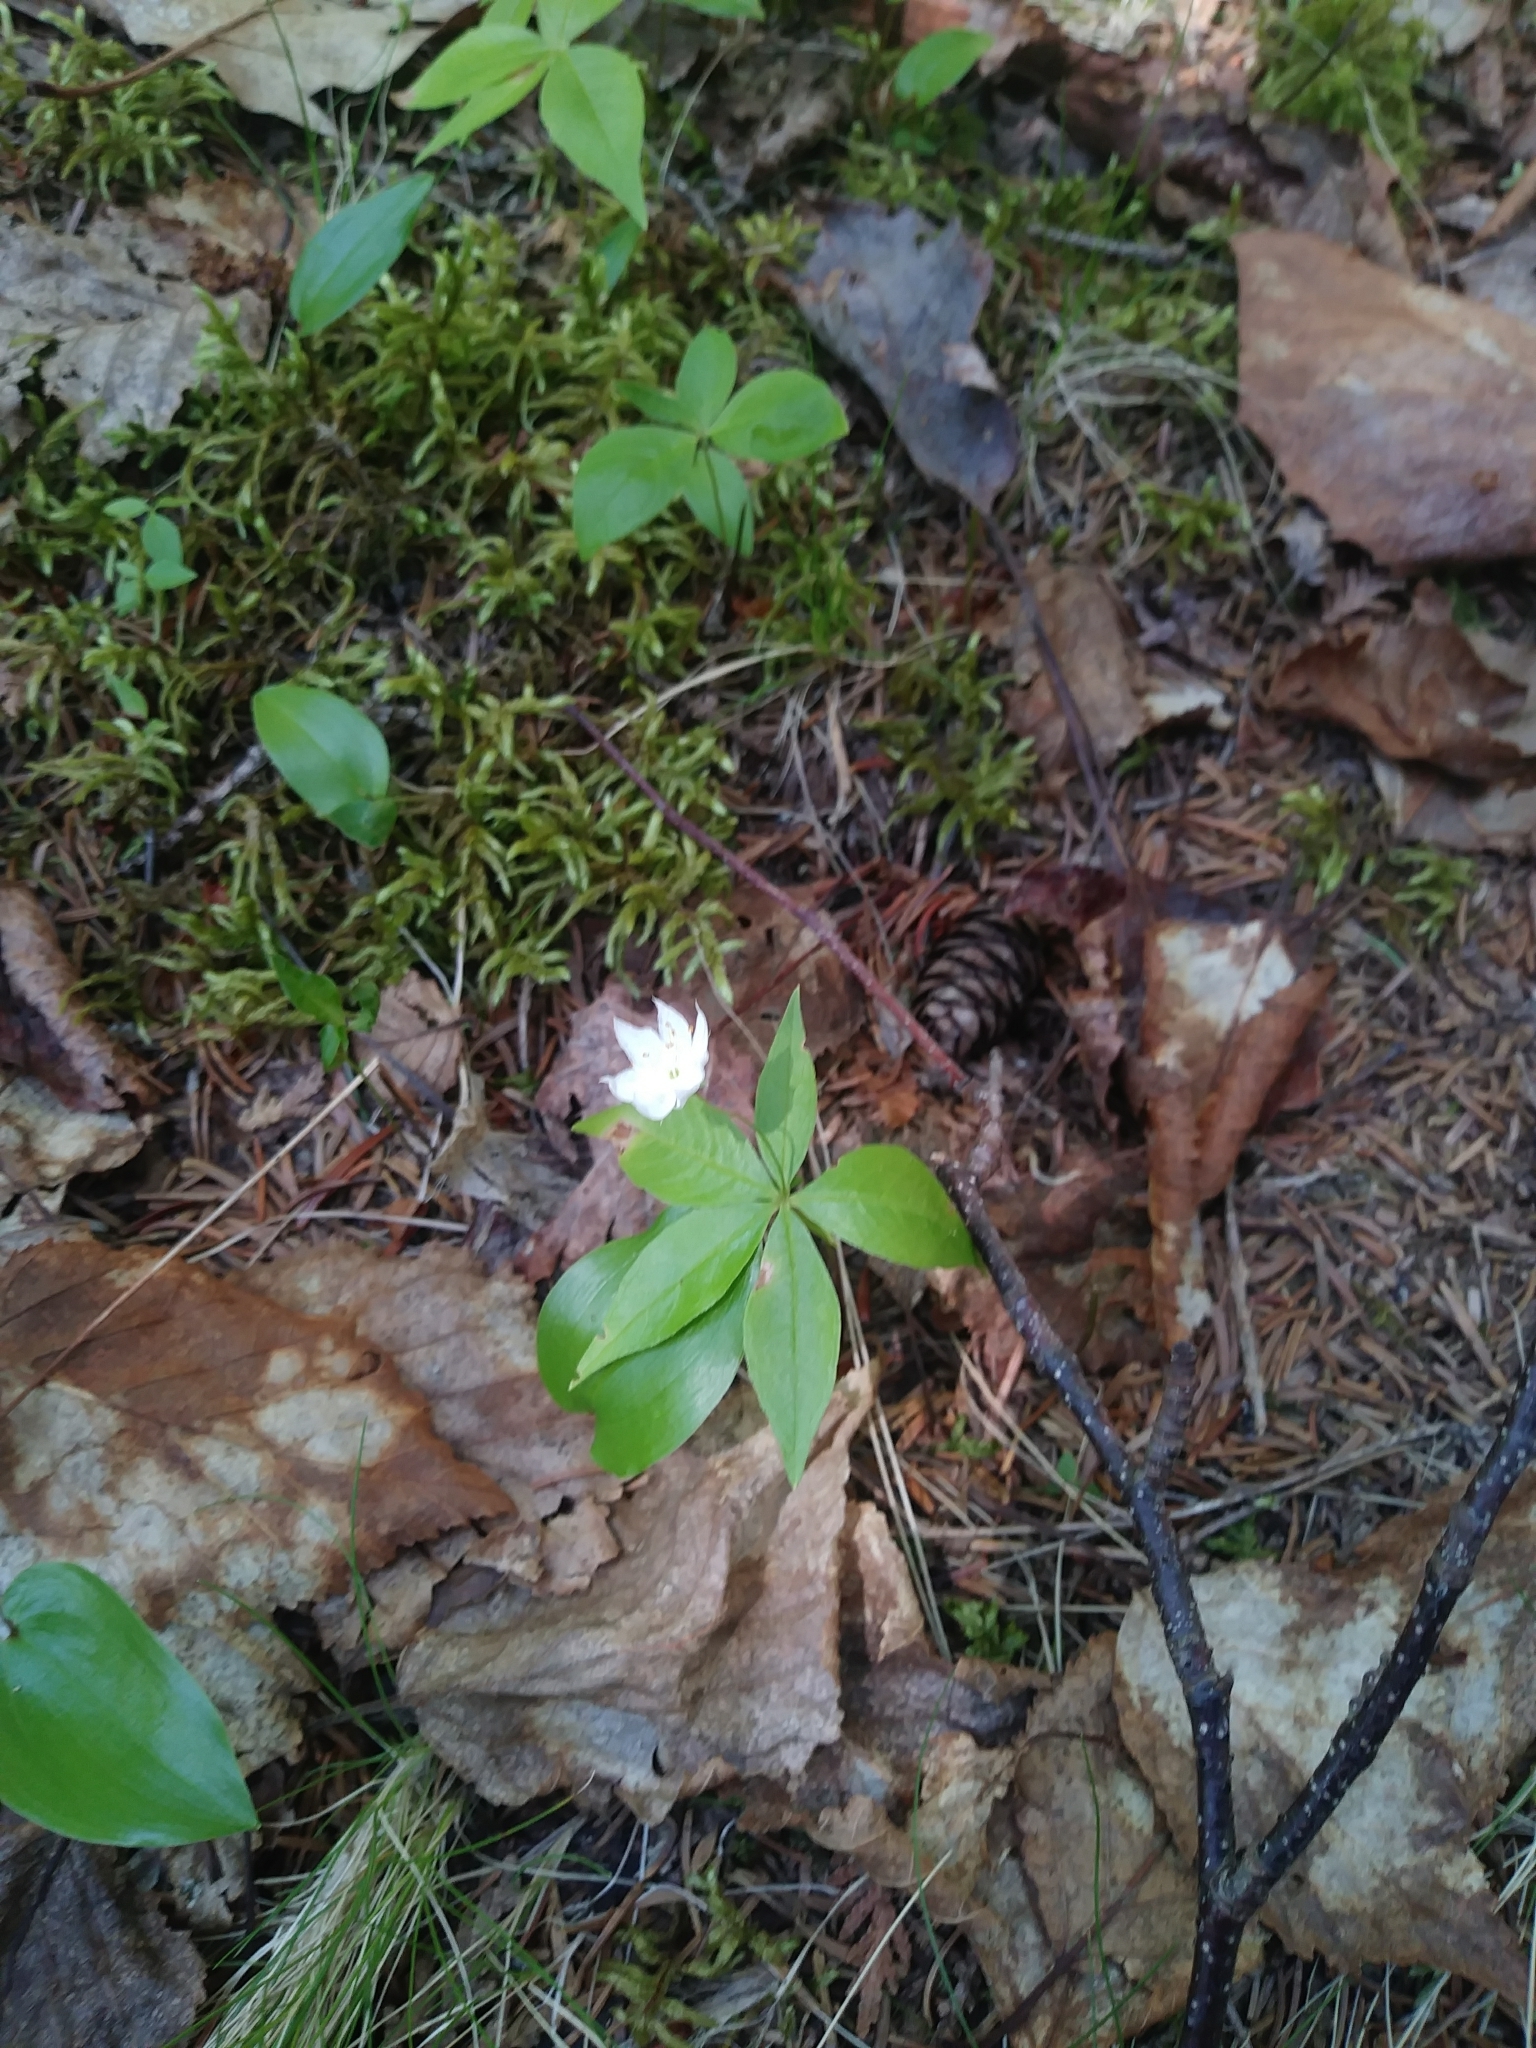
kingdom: Plantae
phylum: Tracheophyta
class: Magnoliopsida
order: Ericales
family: Primulaceae
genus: Lysimachia
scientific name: Lysimachia borealis
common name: American starflower
